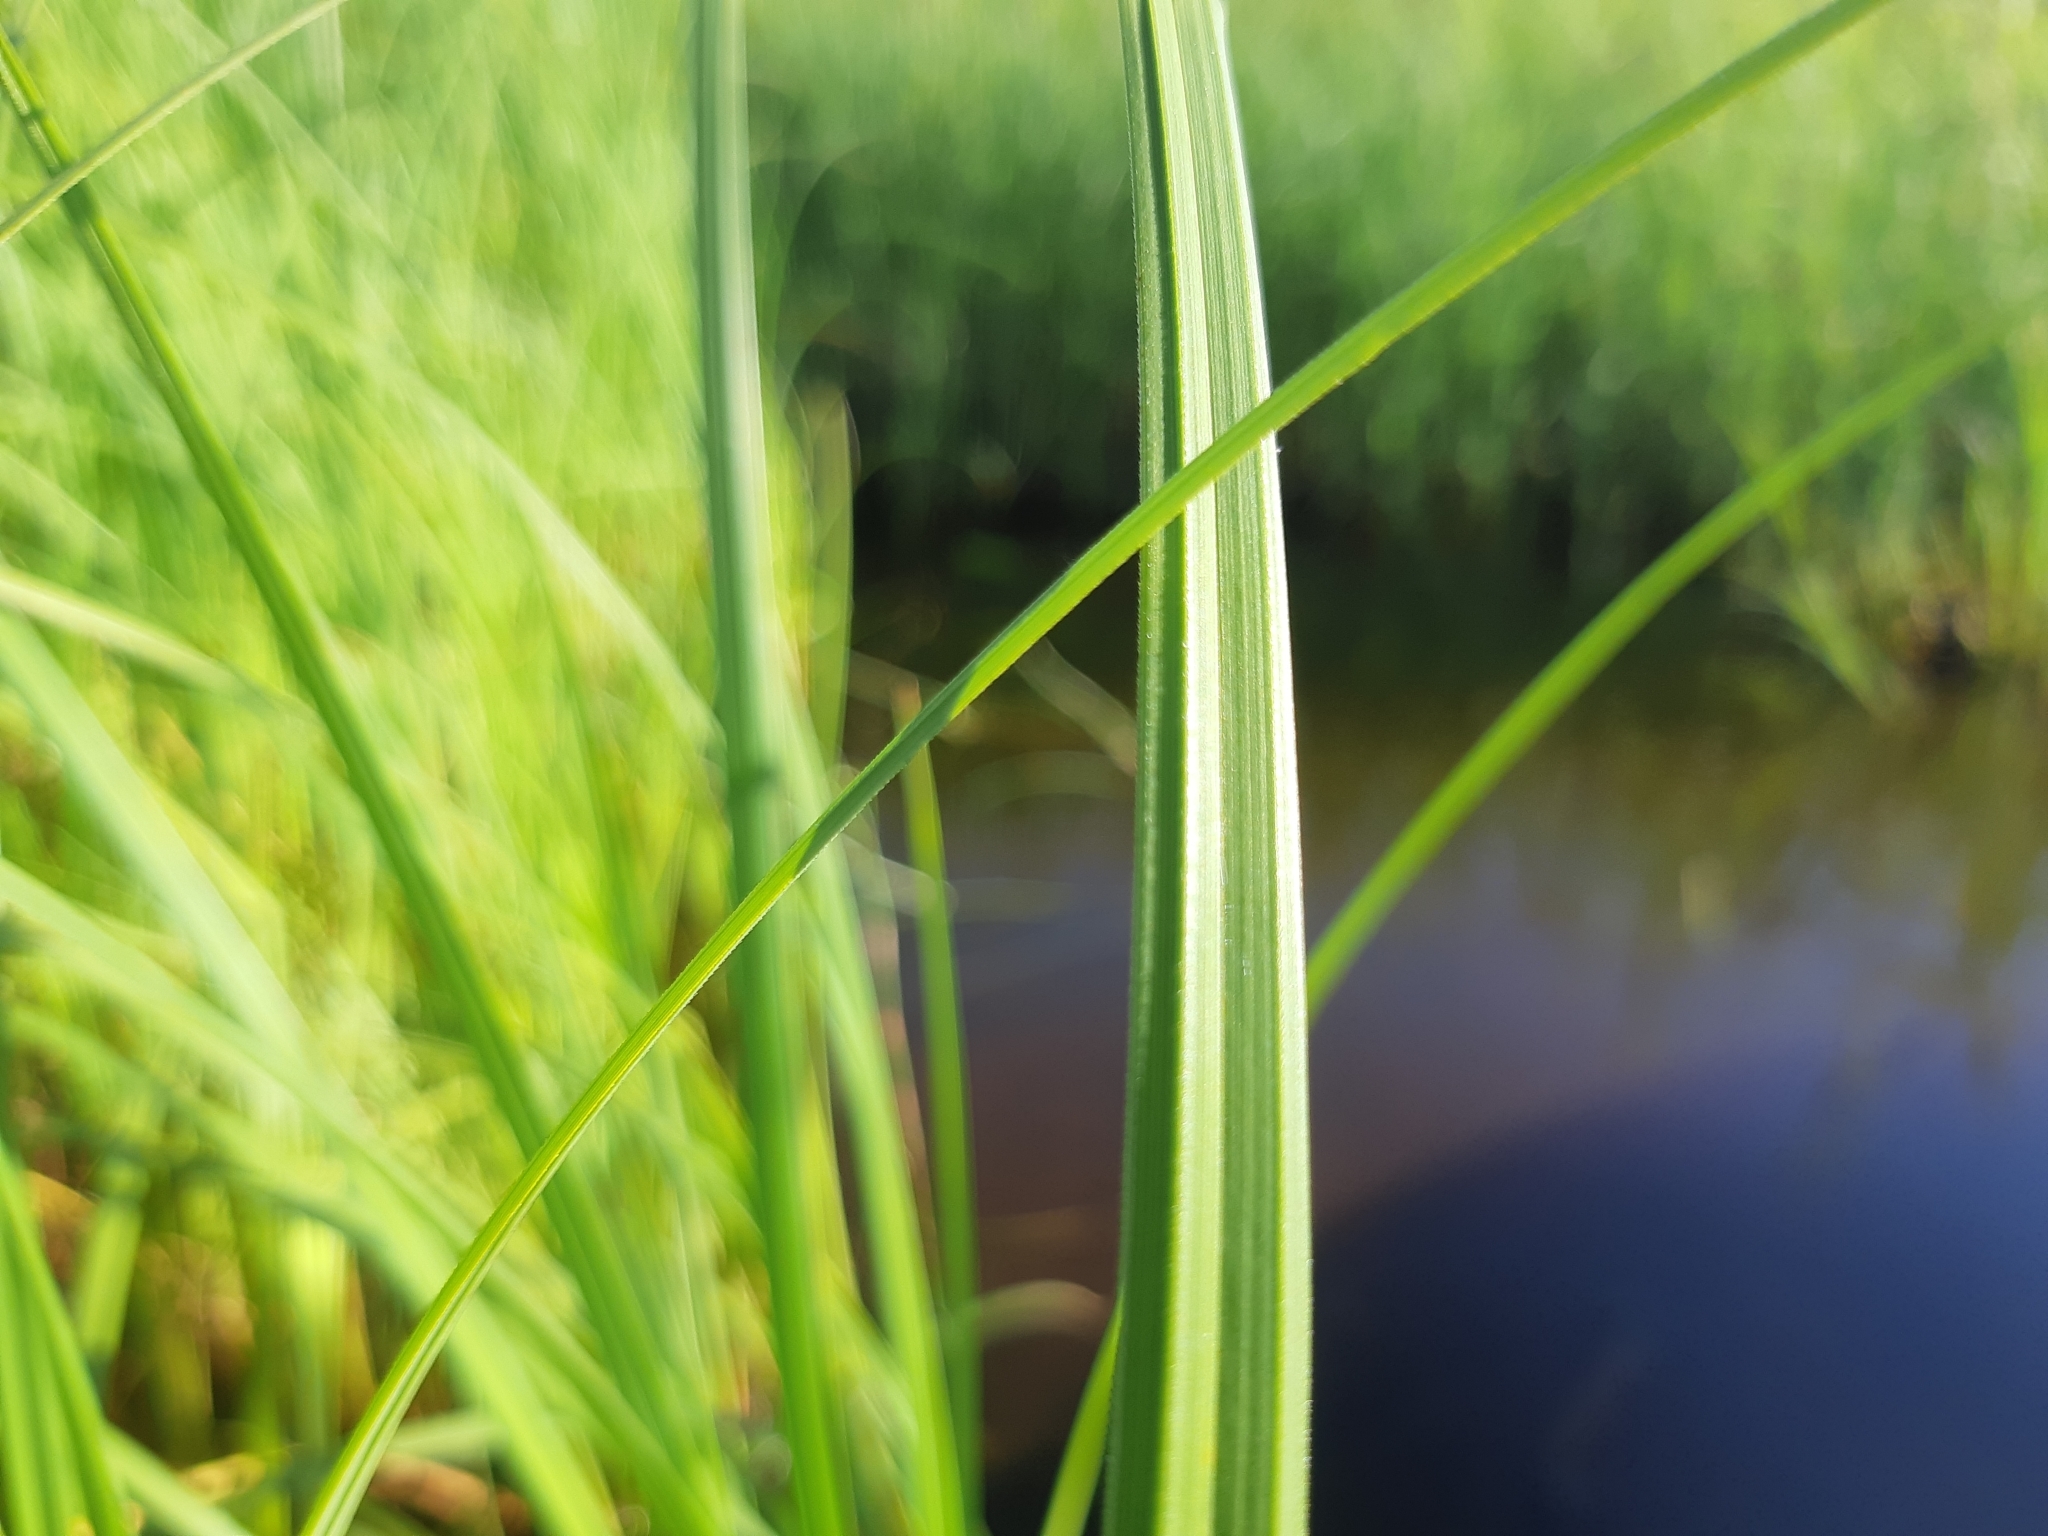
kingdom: Plantae
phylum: Tracheophyta
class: Liliopsida
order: Poales
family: Cyperaceae
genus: Carex
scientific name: Carex acuta
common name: Slender tufted-sedge
